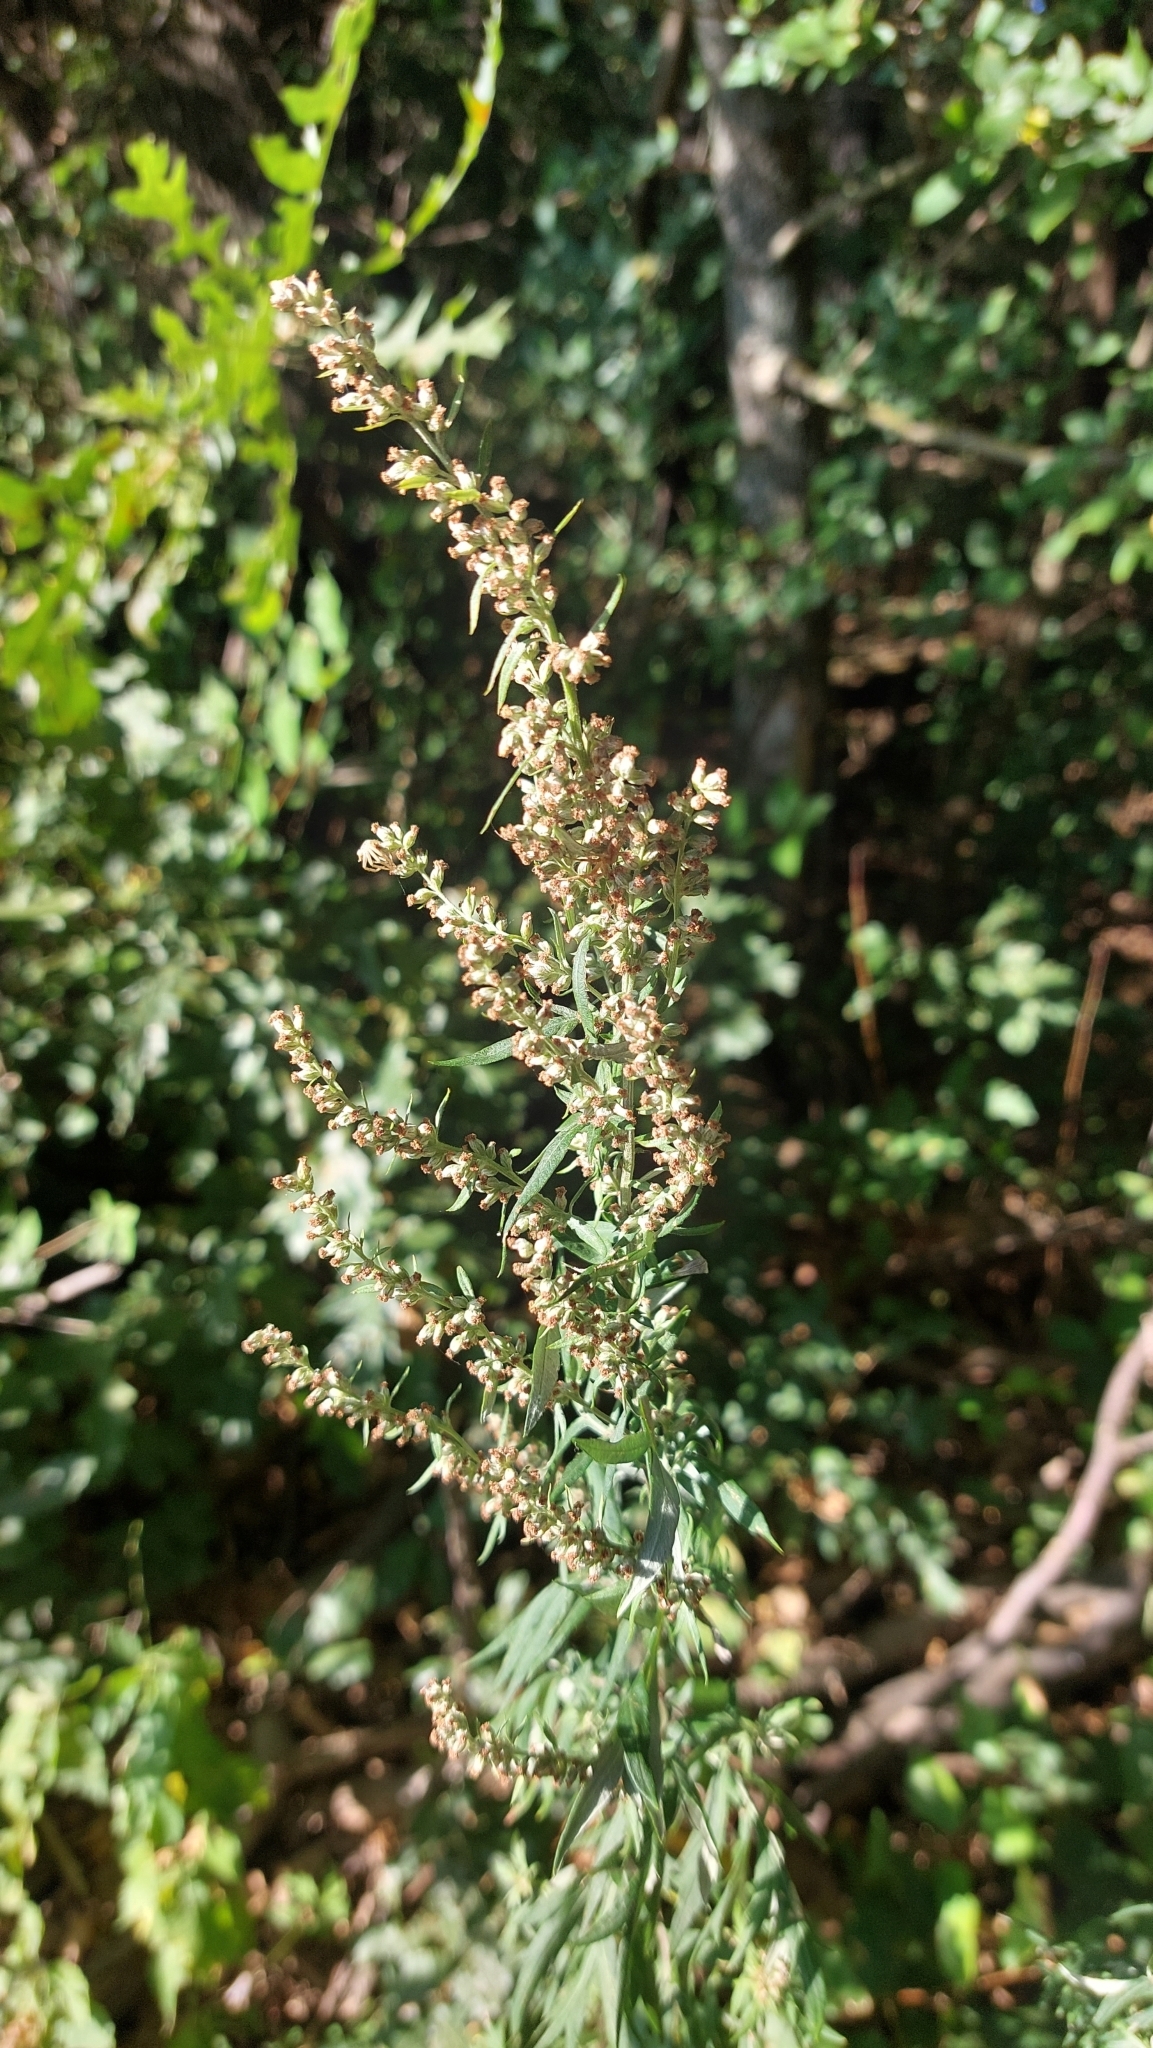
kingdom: Plantae
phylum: Tracheophyta
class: Magnoliopsida
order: Asterales
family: Asteraceae
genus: Artemisia
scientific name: Artemisia vulgaris
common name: Mugwort
